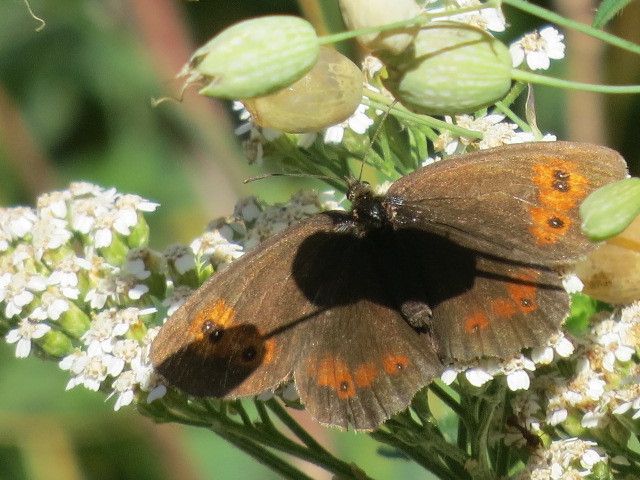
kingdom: Animalia
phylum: Arthropoda
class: Insecta
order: Lepidoptera
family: Nymphalidae
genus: Erebia
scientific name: Erebia euryale
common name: Large ringlet
